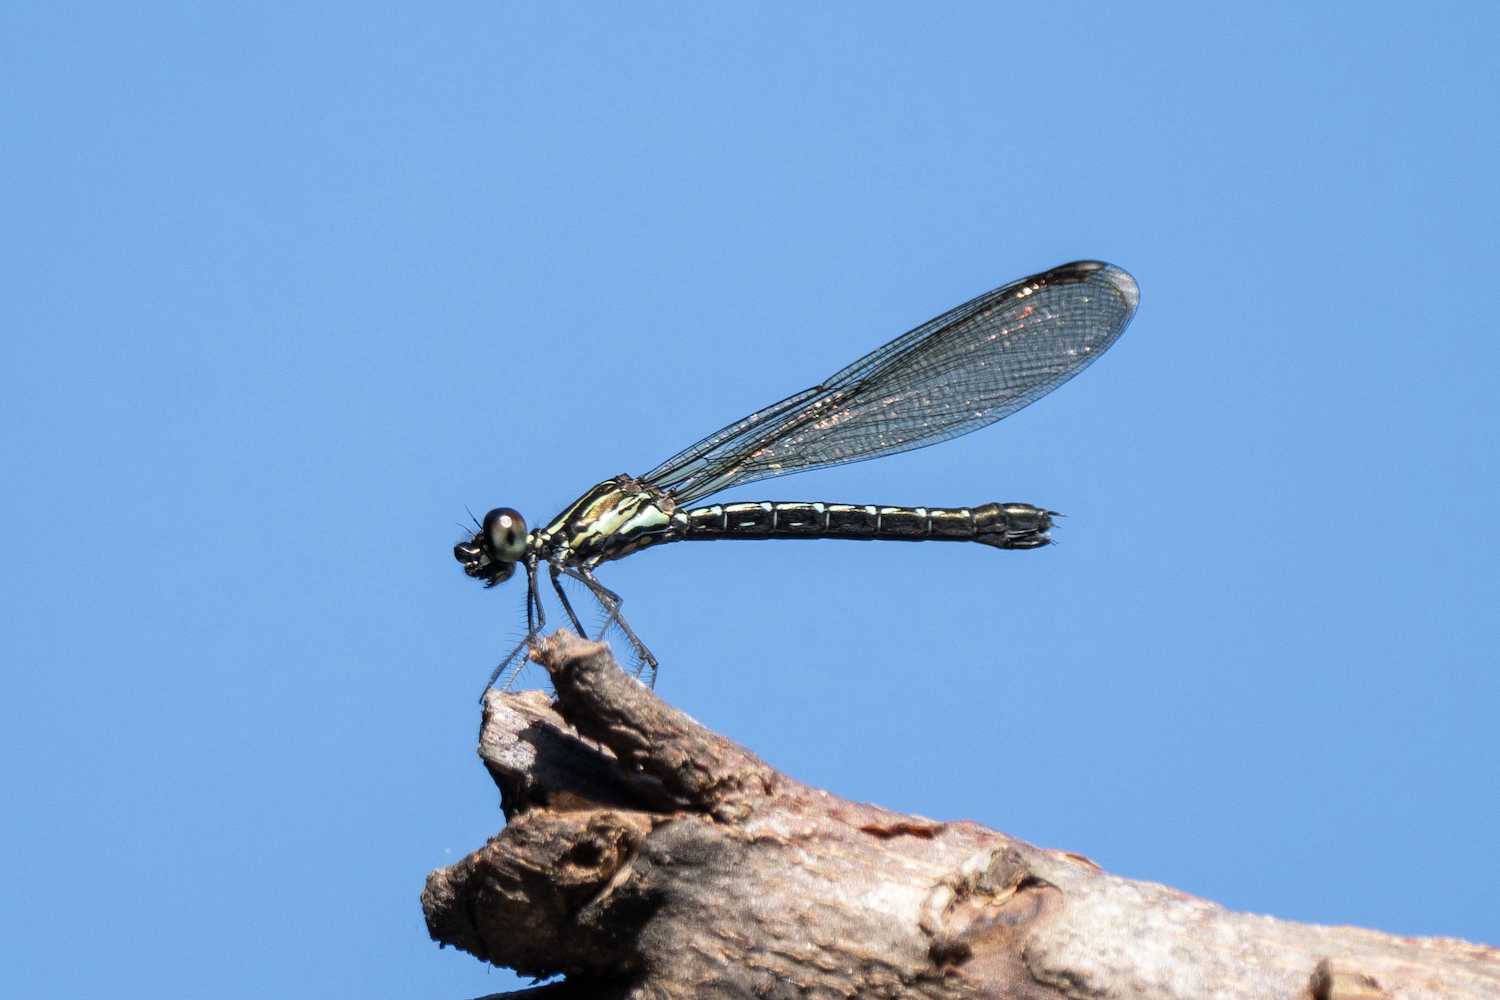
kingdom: Animalia
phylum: Arthropoda
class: Insecta
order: Odonata
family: Chlorocyphidae
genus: Heliocypha
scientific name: Heliocypha perforata
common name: Common blue jewel
